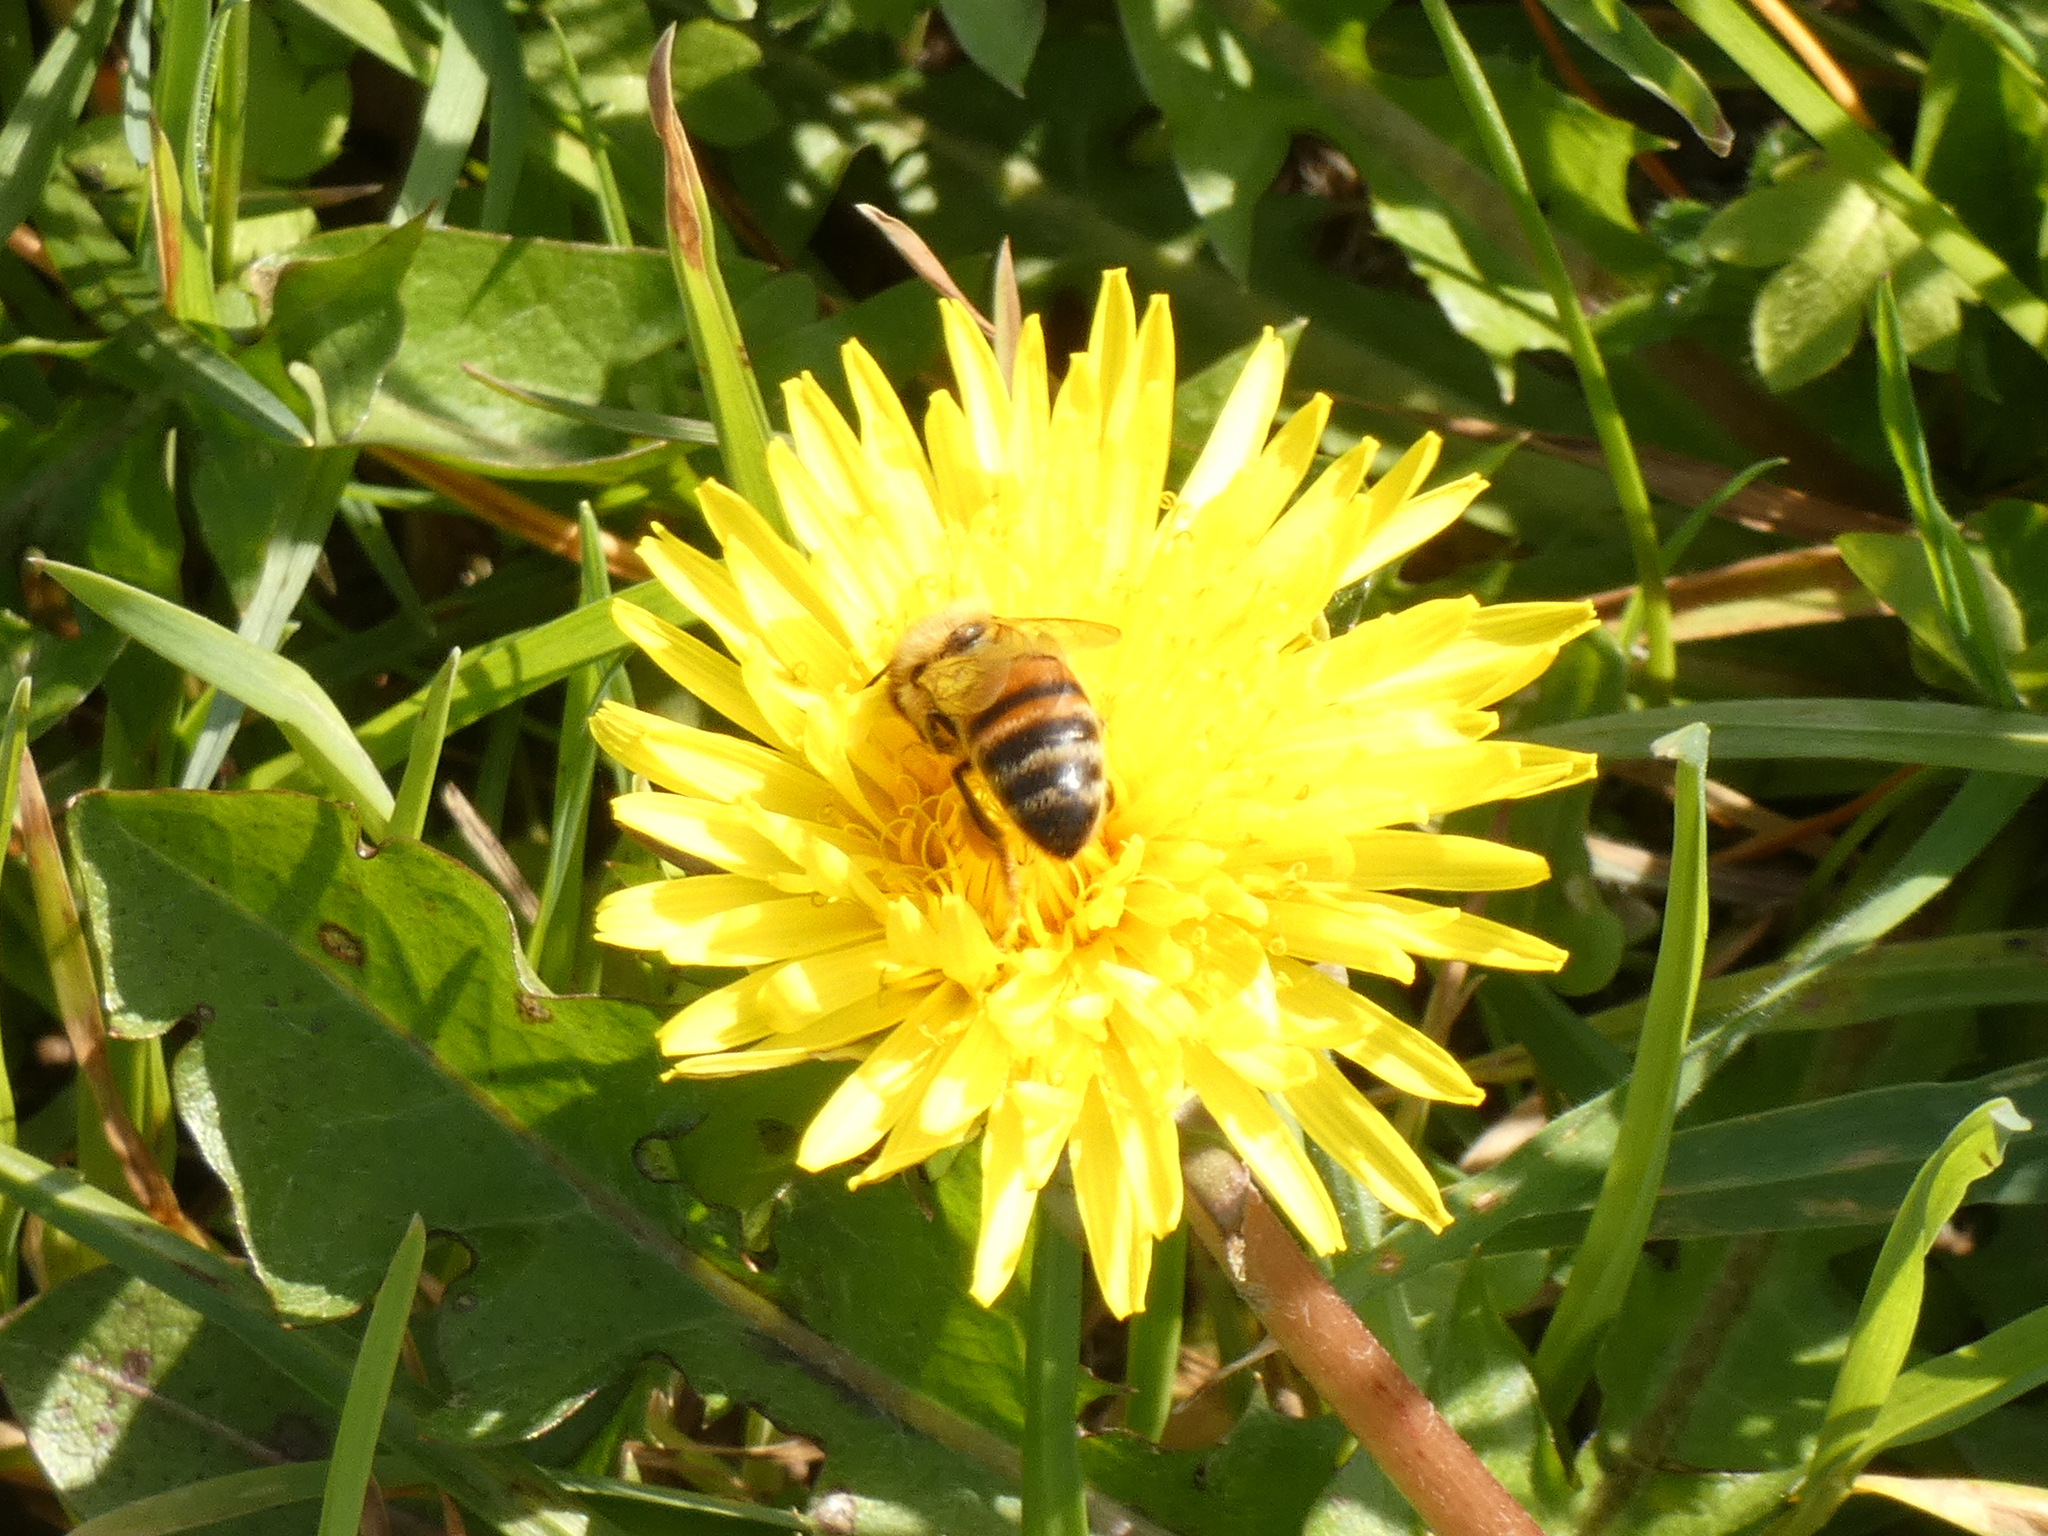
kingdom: Animalia
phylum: Arthropoda
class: Insecta
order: Hymenoptera
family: Apidae
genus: Apis
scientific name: Apis mellifera
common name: Honey bee
